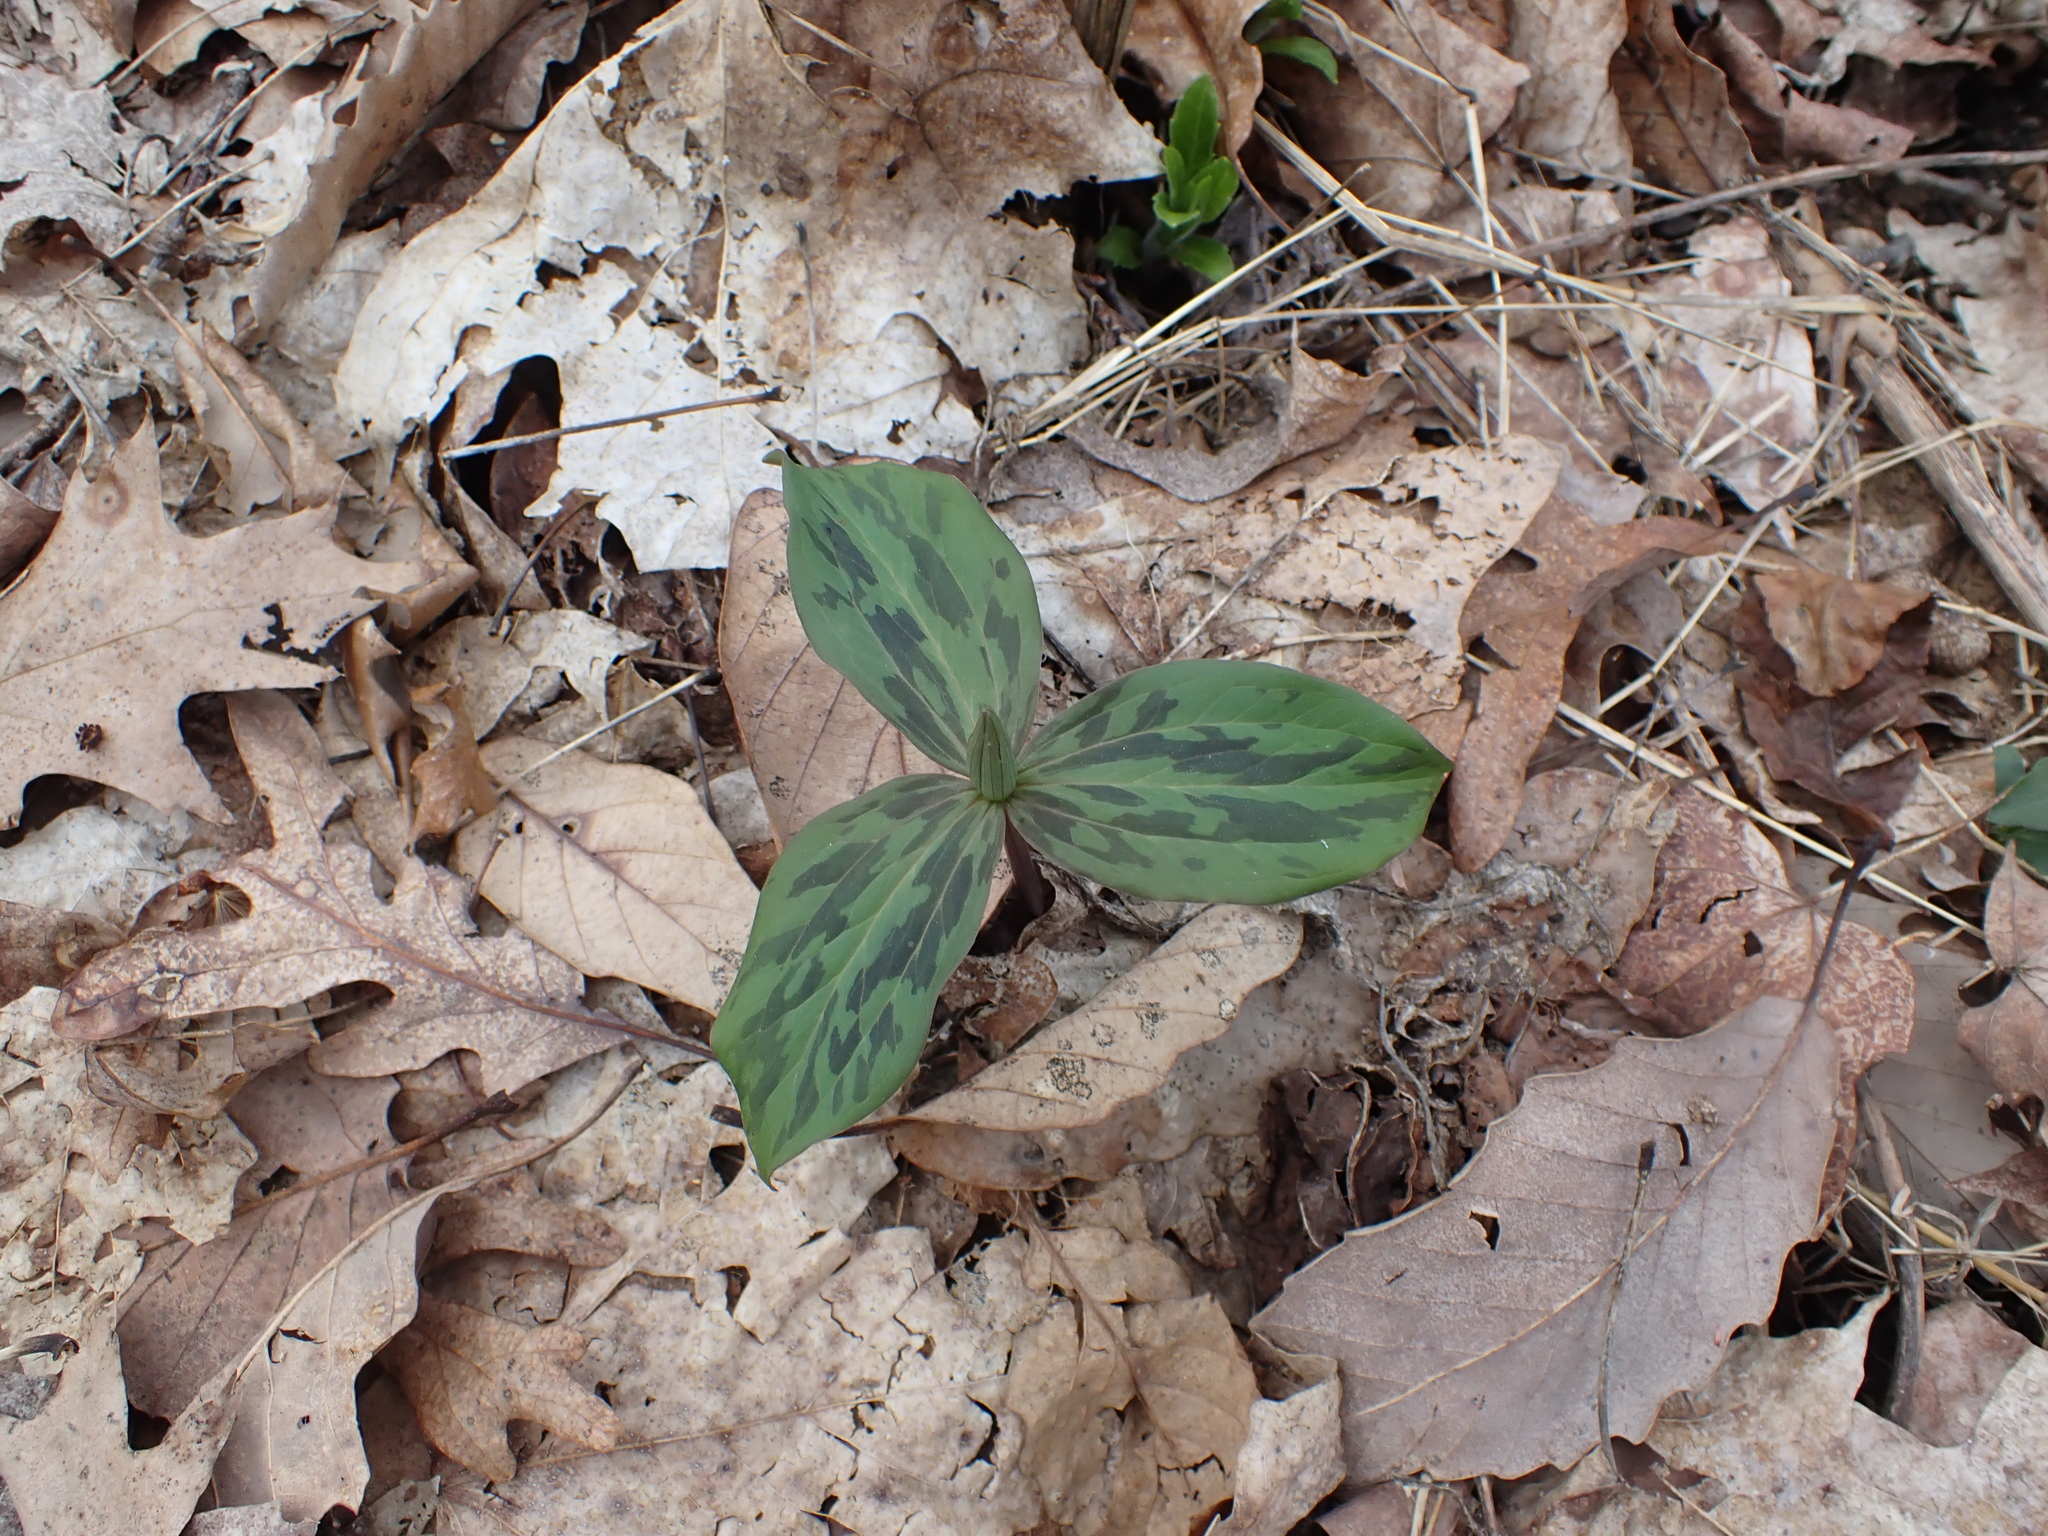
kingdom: Plantae
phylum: Tracheophyta
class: Liliopsida
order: Liliales
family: Melanthiaceae
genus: Trillium
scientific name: Trillium sessile
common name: Sessile trillium
